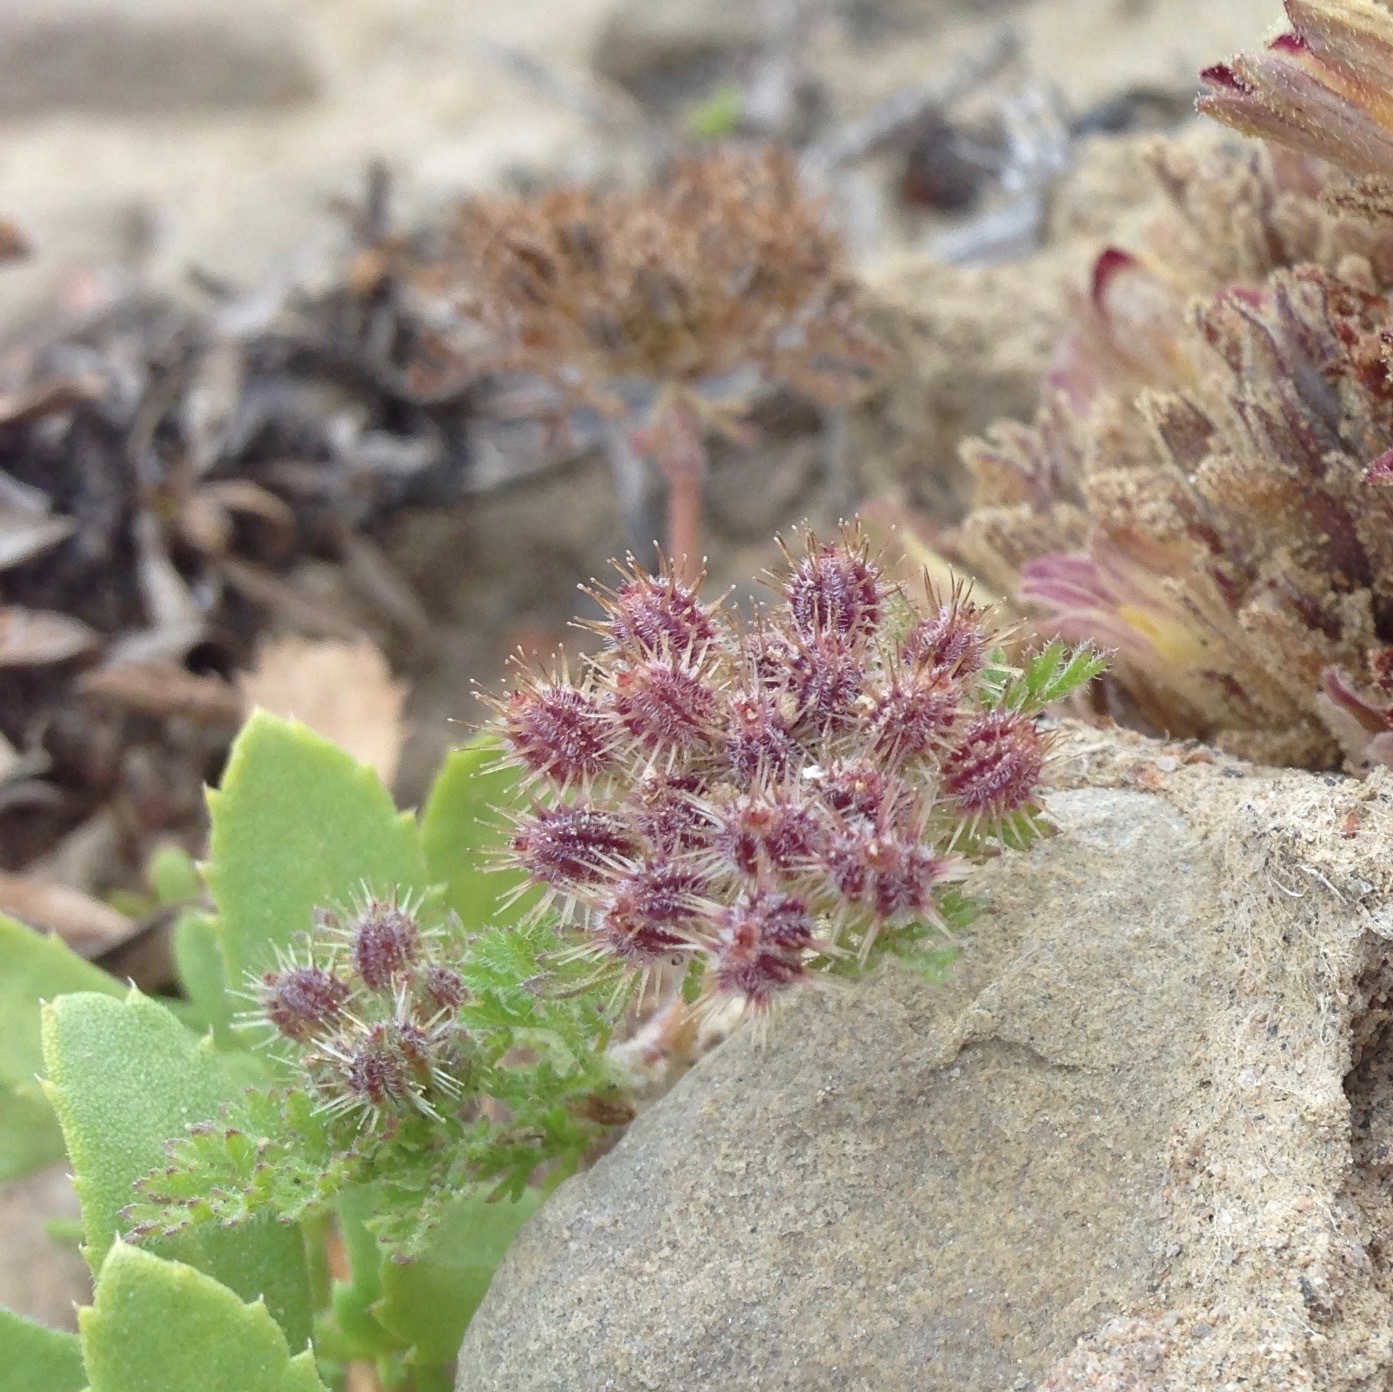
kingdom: Plantae
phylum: Tracheophyta
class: Magnoliopsida
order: Apiales
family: Apiaceae
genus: Daucus
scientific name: Daucus pusillus
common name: Southwest wild carrot
